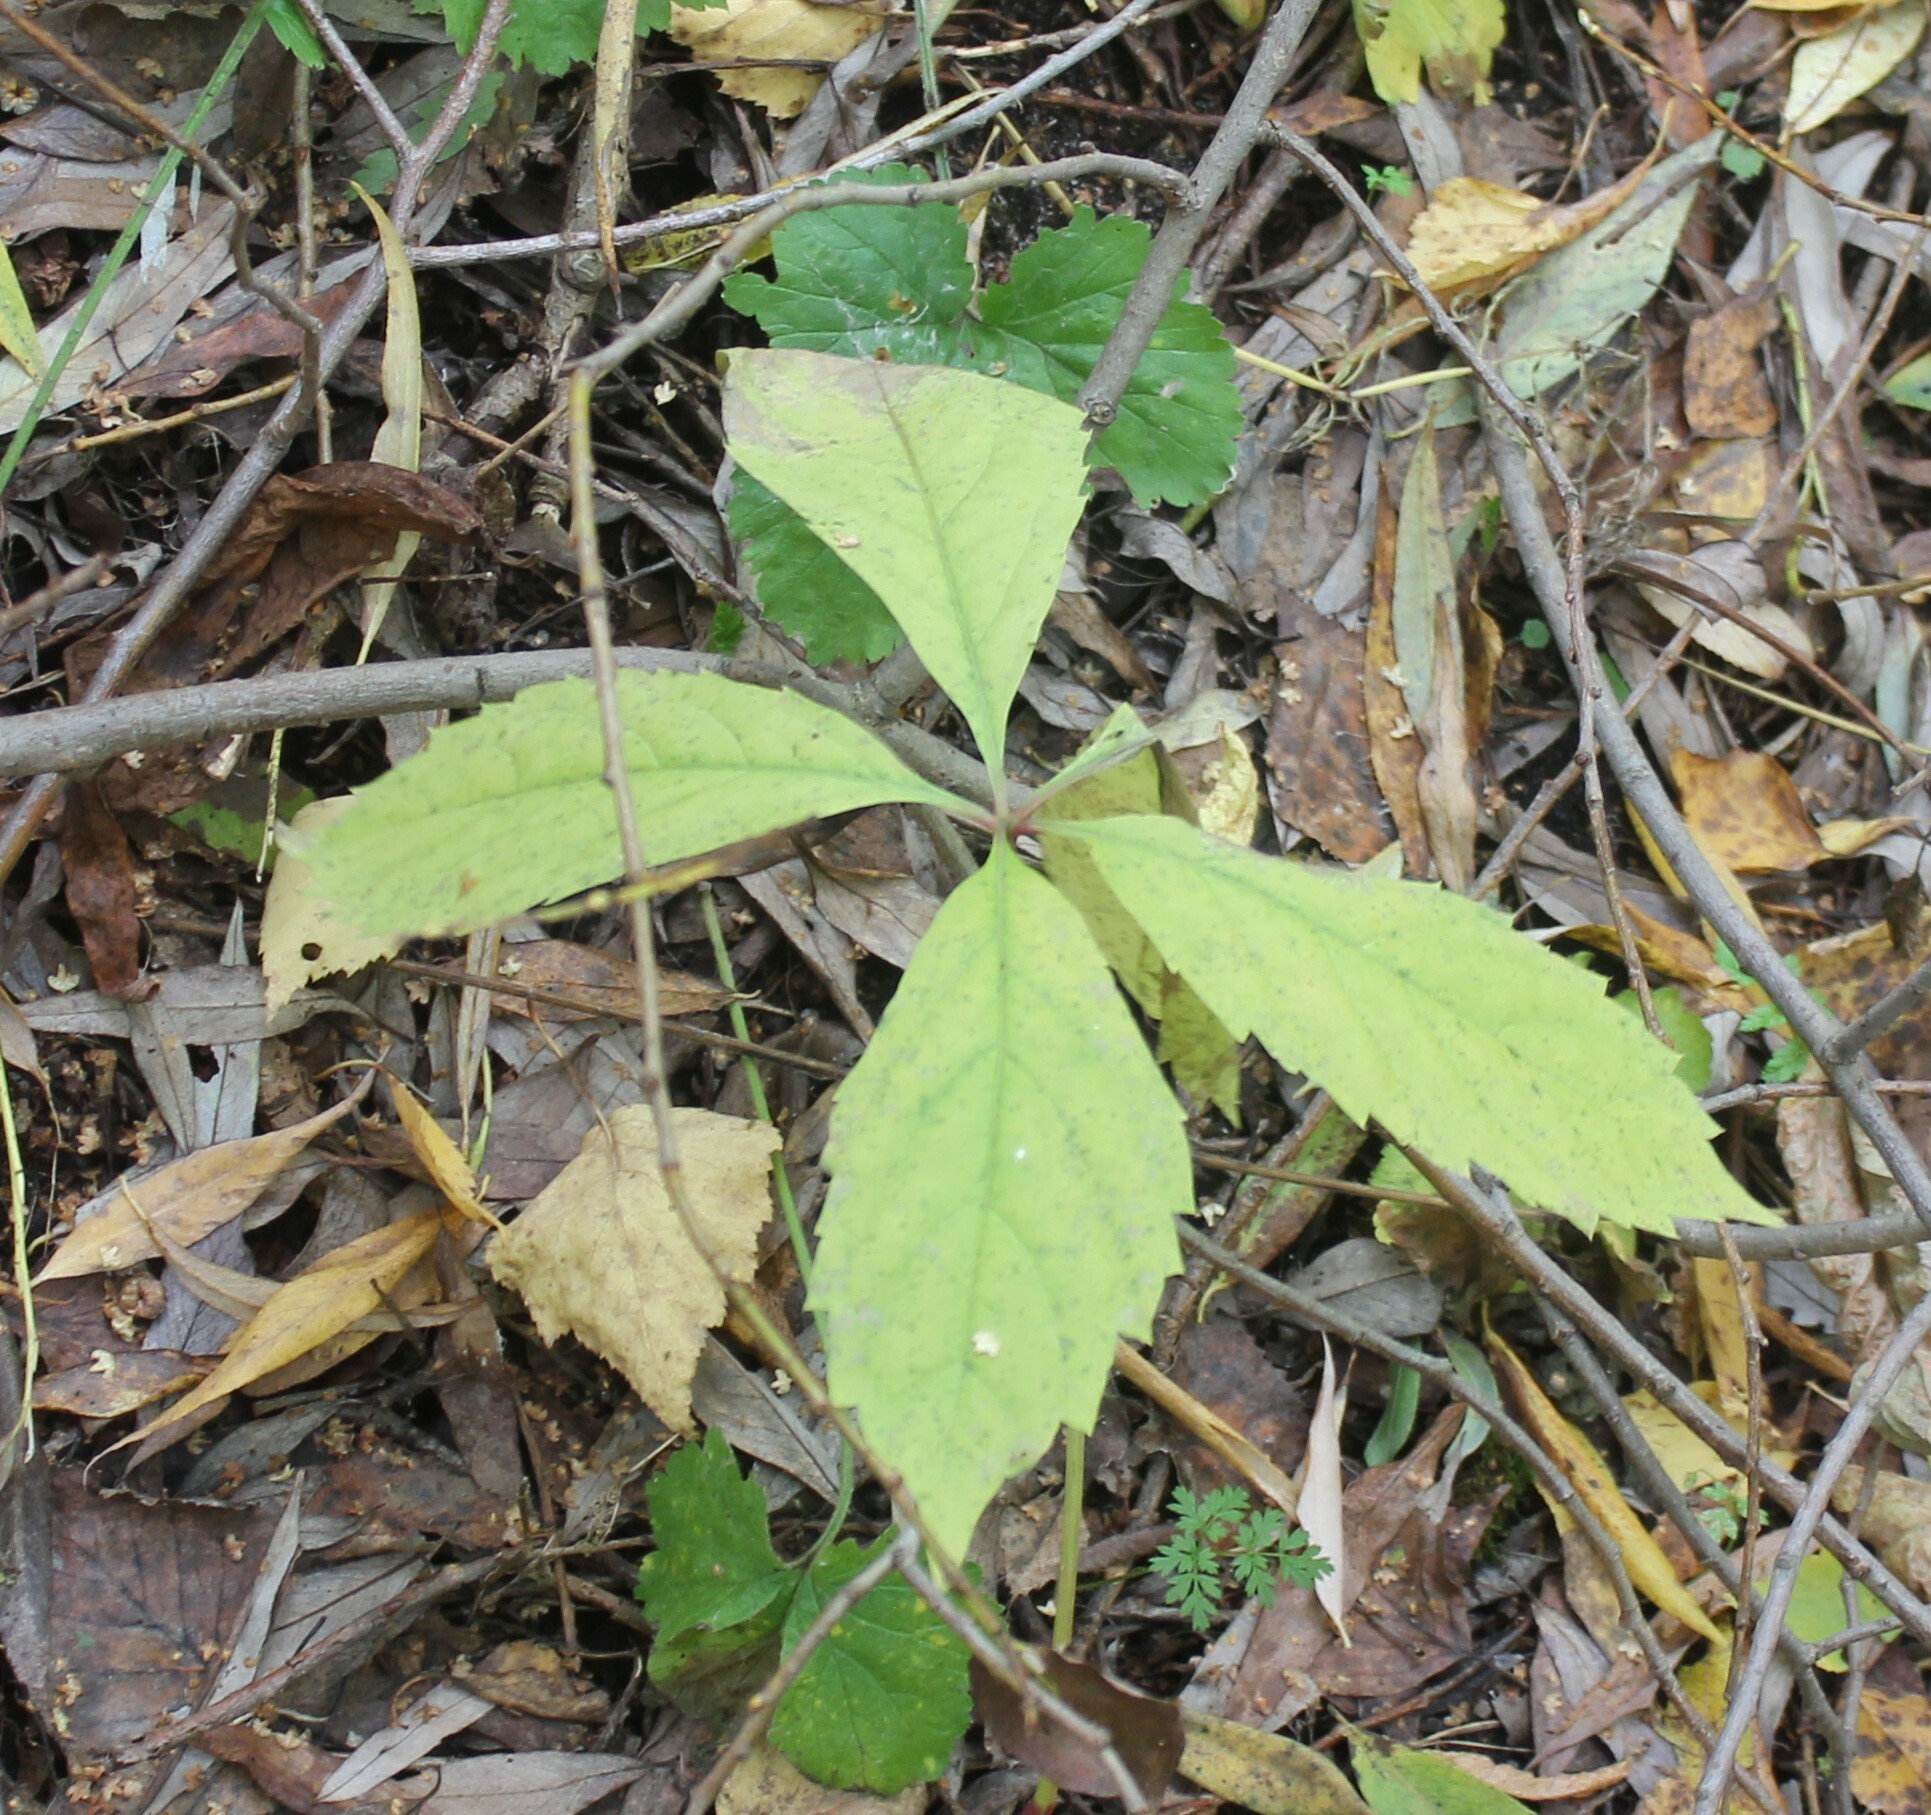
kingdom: Plantae
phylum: Tracheophyta
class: Magnoliopsida
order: Vitales
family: Vitaceae
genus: Parthenocissus
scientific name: Parthenocissus inserta
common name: False virginia-creeper
